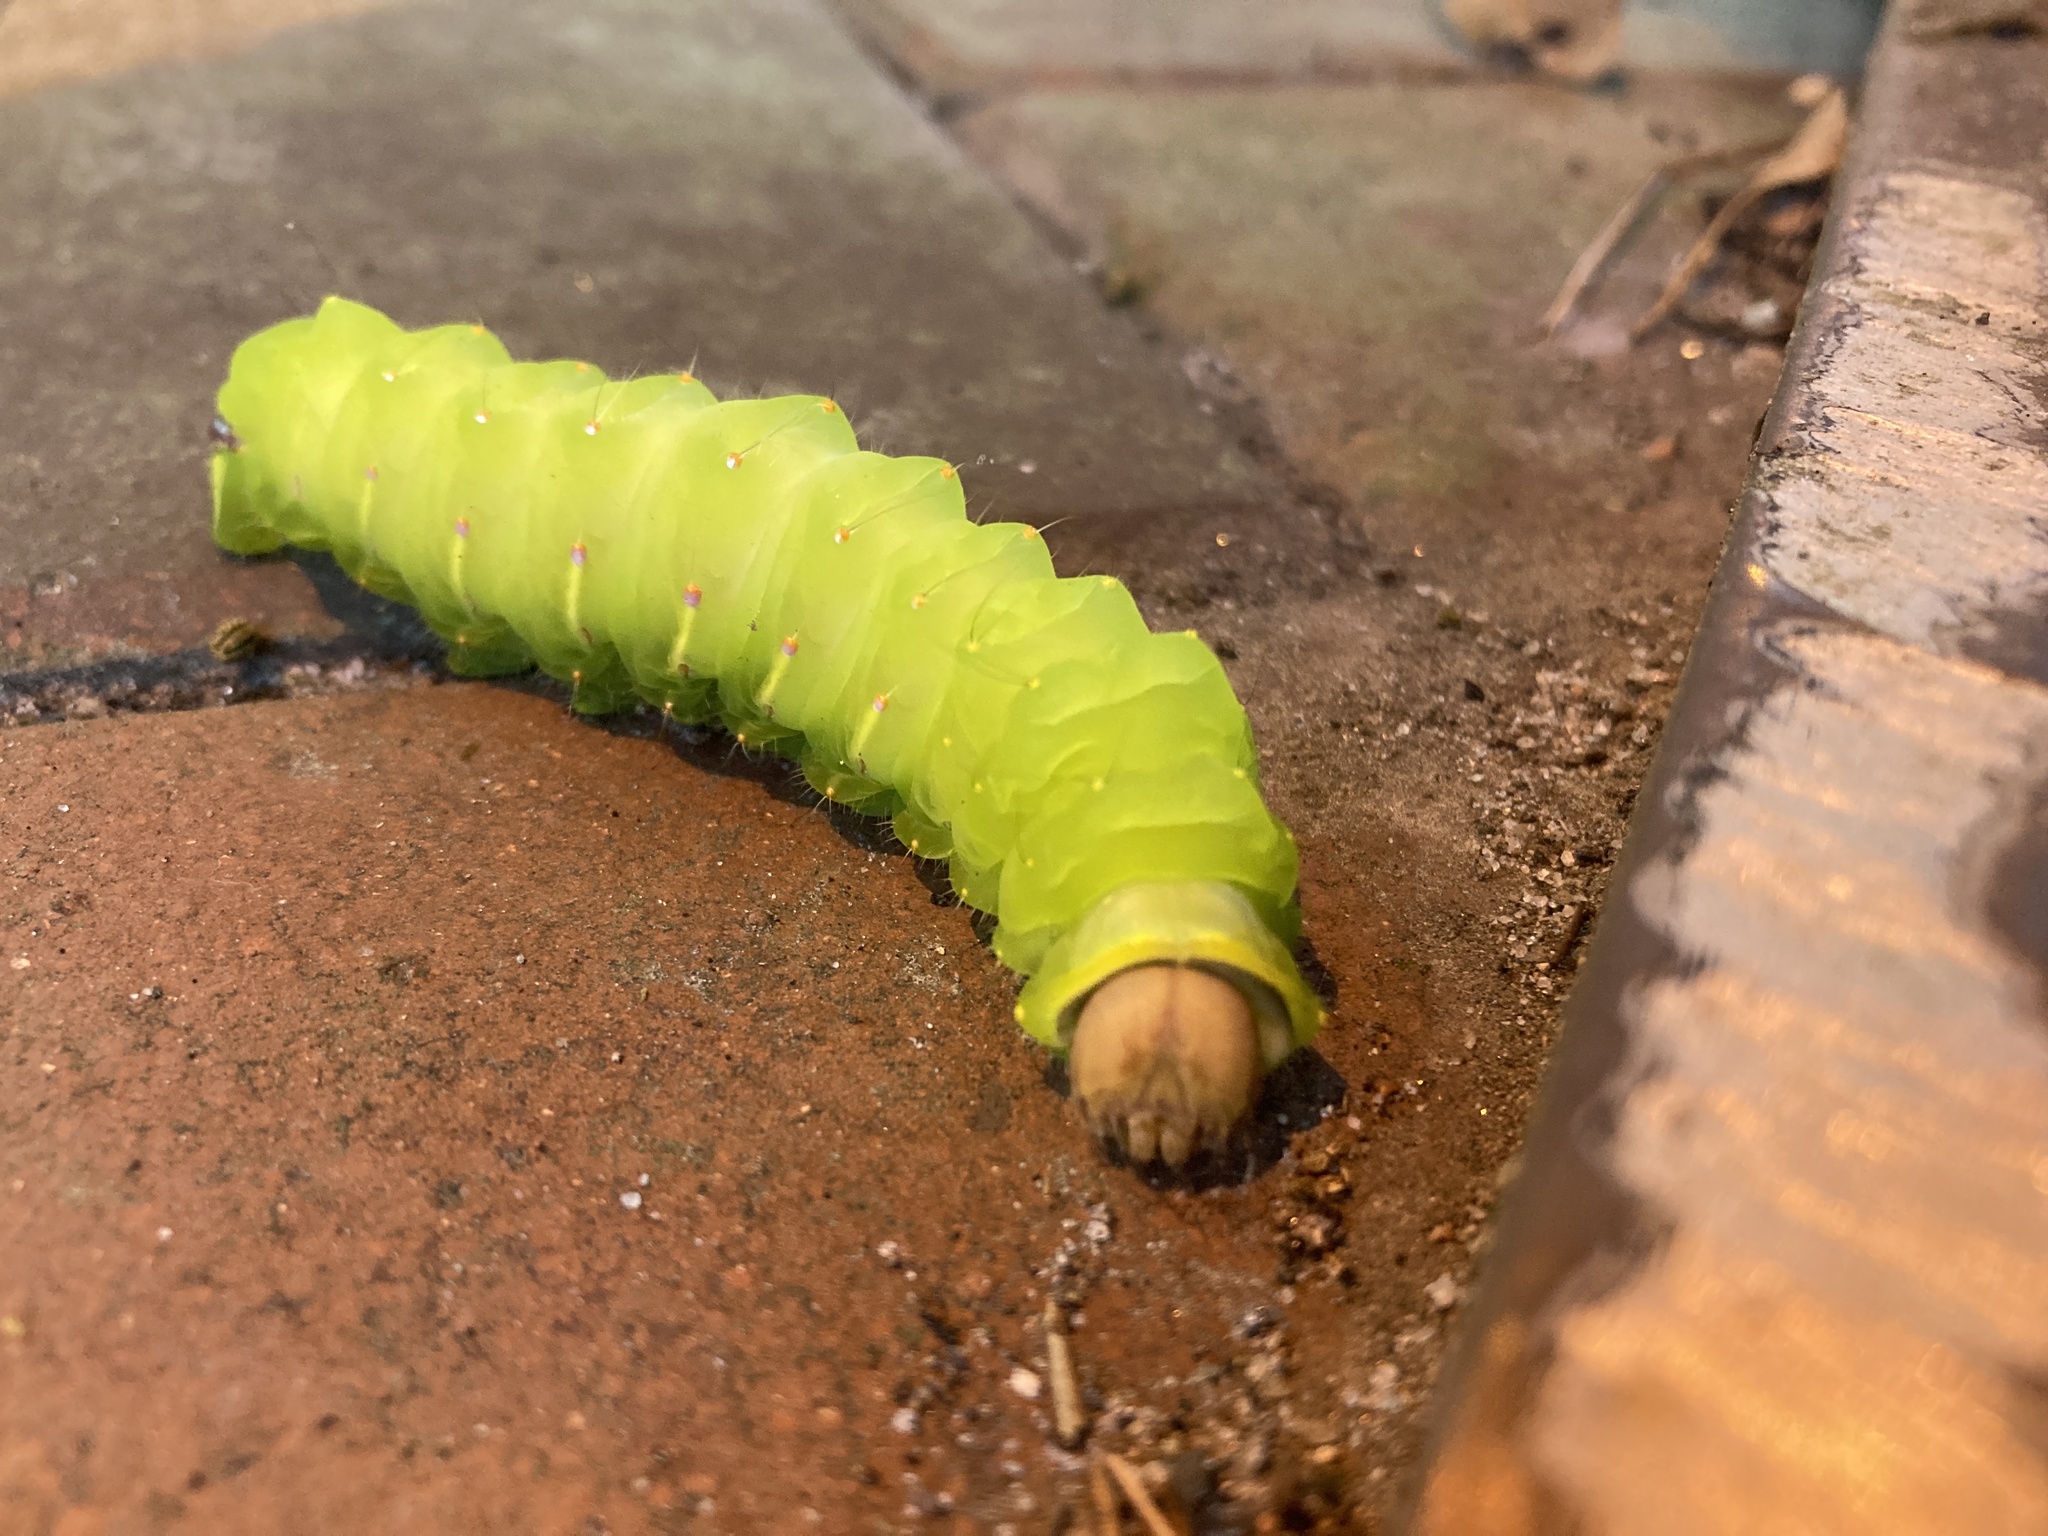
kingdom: Animalia
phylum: Arthropoda
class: Insecta
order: Lepidoptera
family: Saturniidae
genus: Antheraea
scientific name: Antheraea polyphemus
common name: Polyphemus moth
